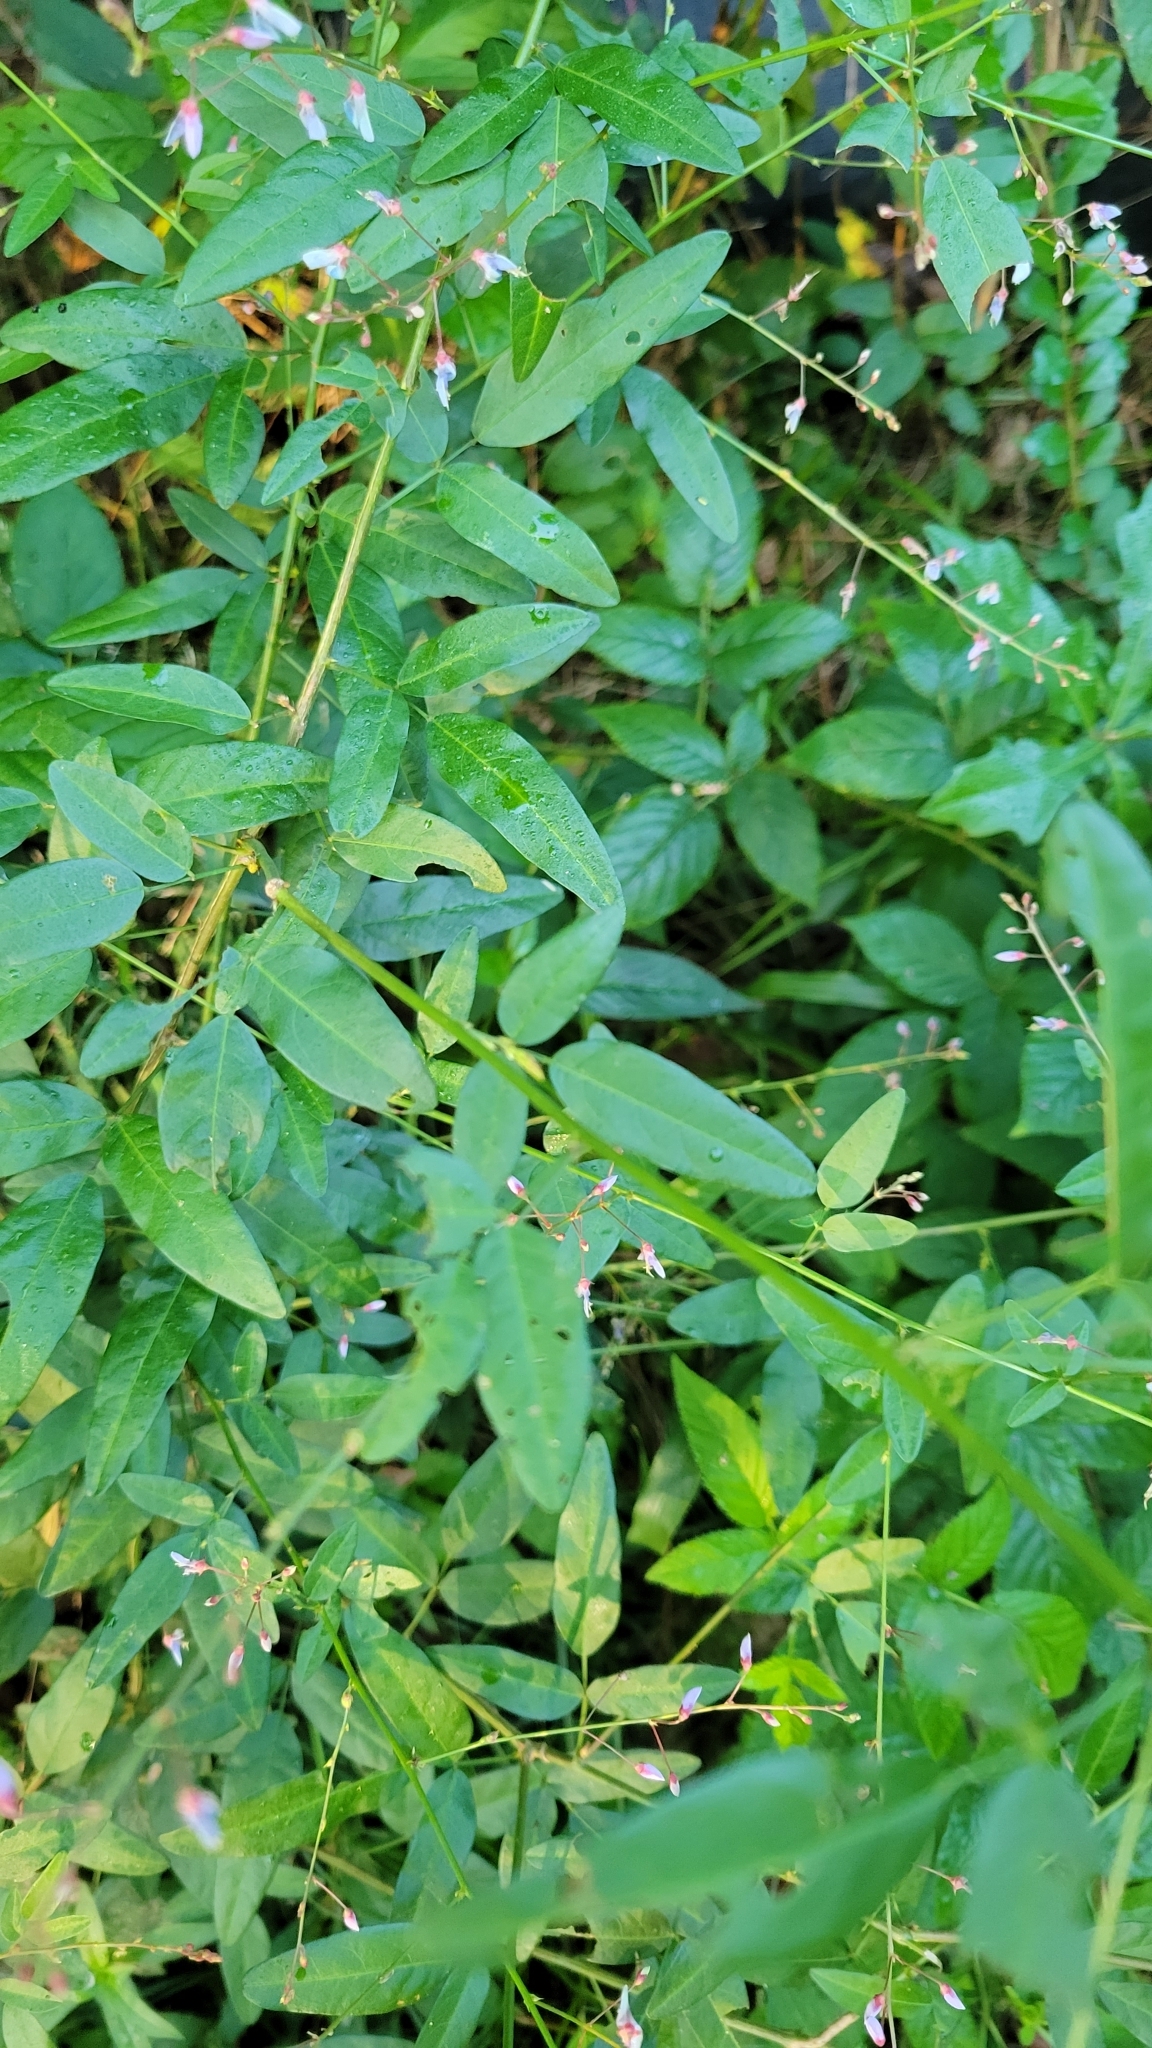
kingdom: Plantae
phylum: Tracheophyta
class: Magnoliopsida
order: Caryophyllales
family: Polygonaceae
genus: Persicaria
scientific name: Persicaria longiseta
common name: Bristly lady's-thumb
